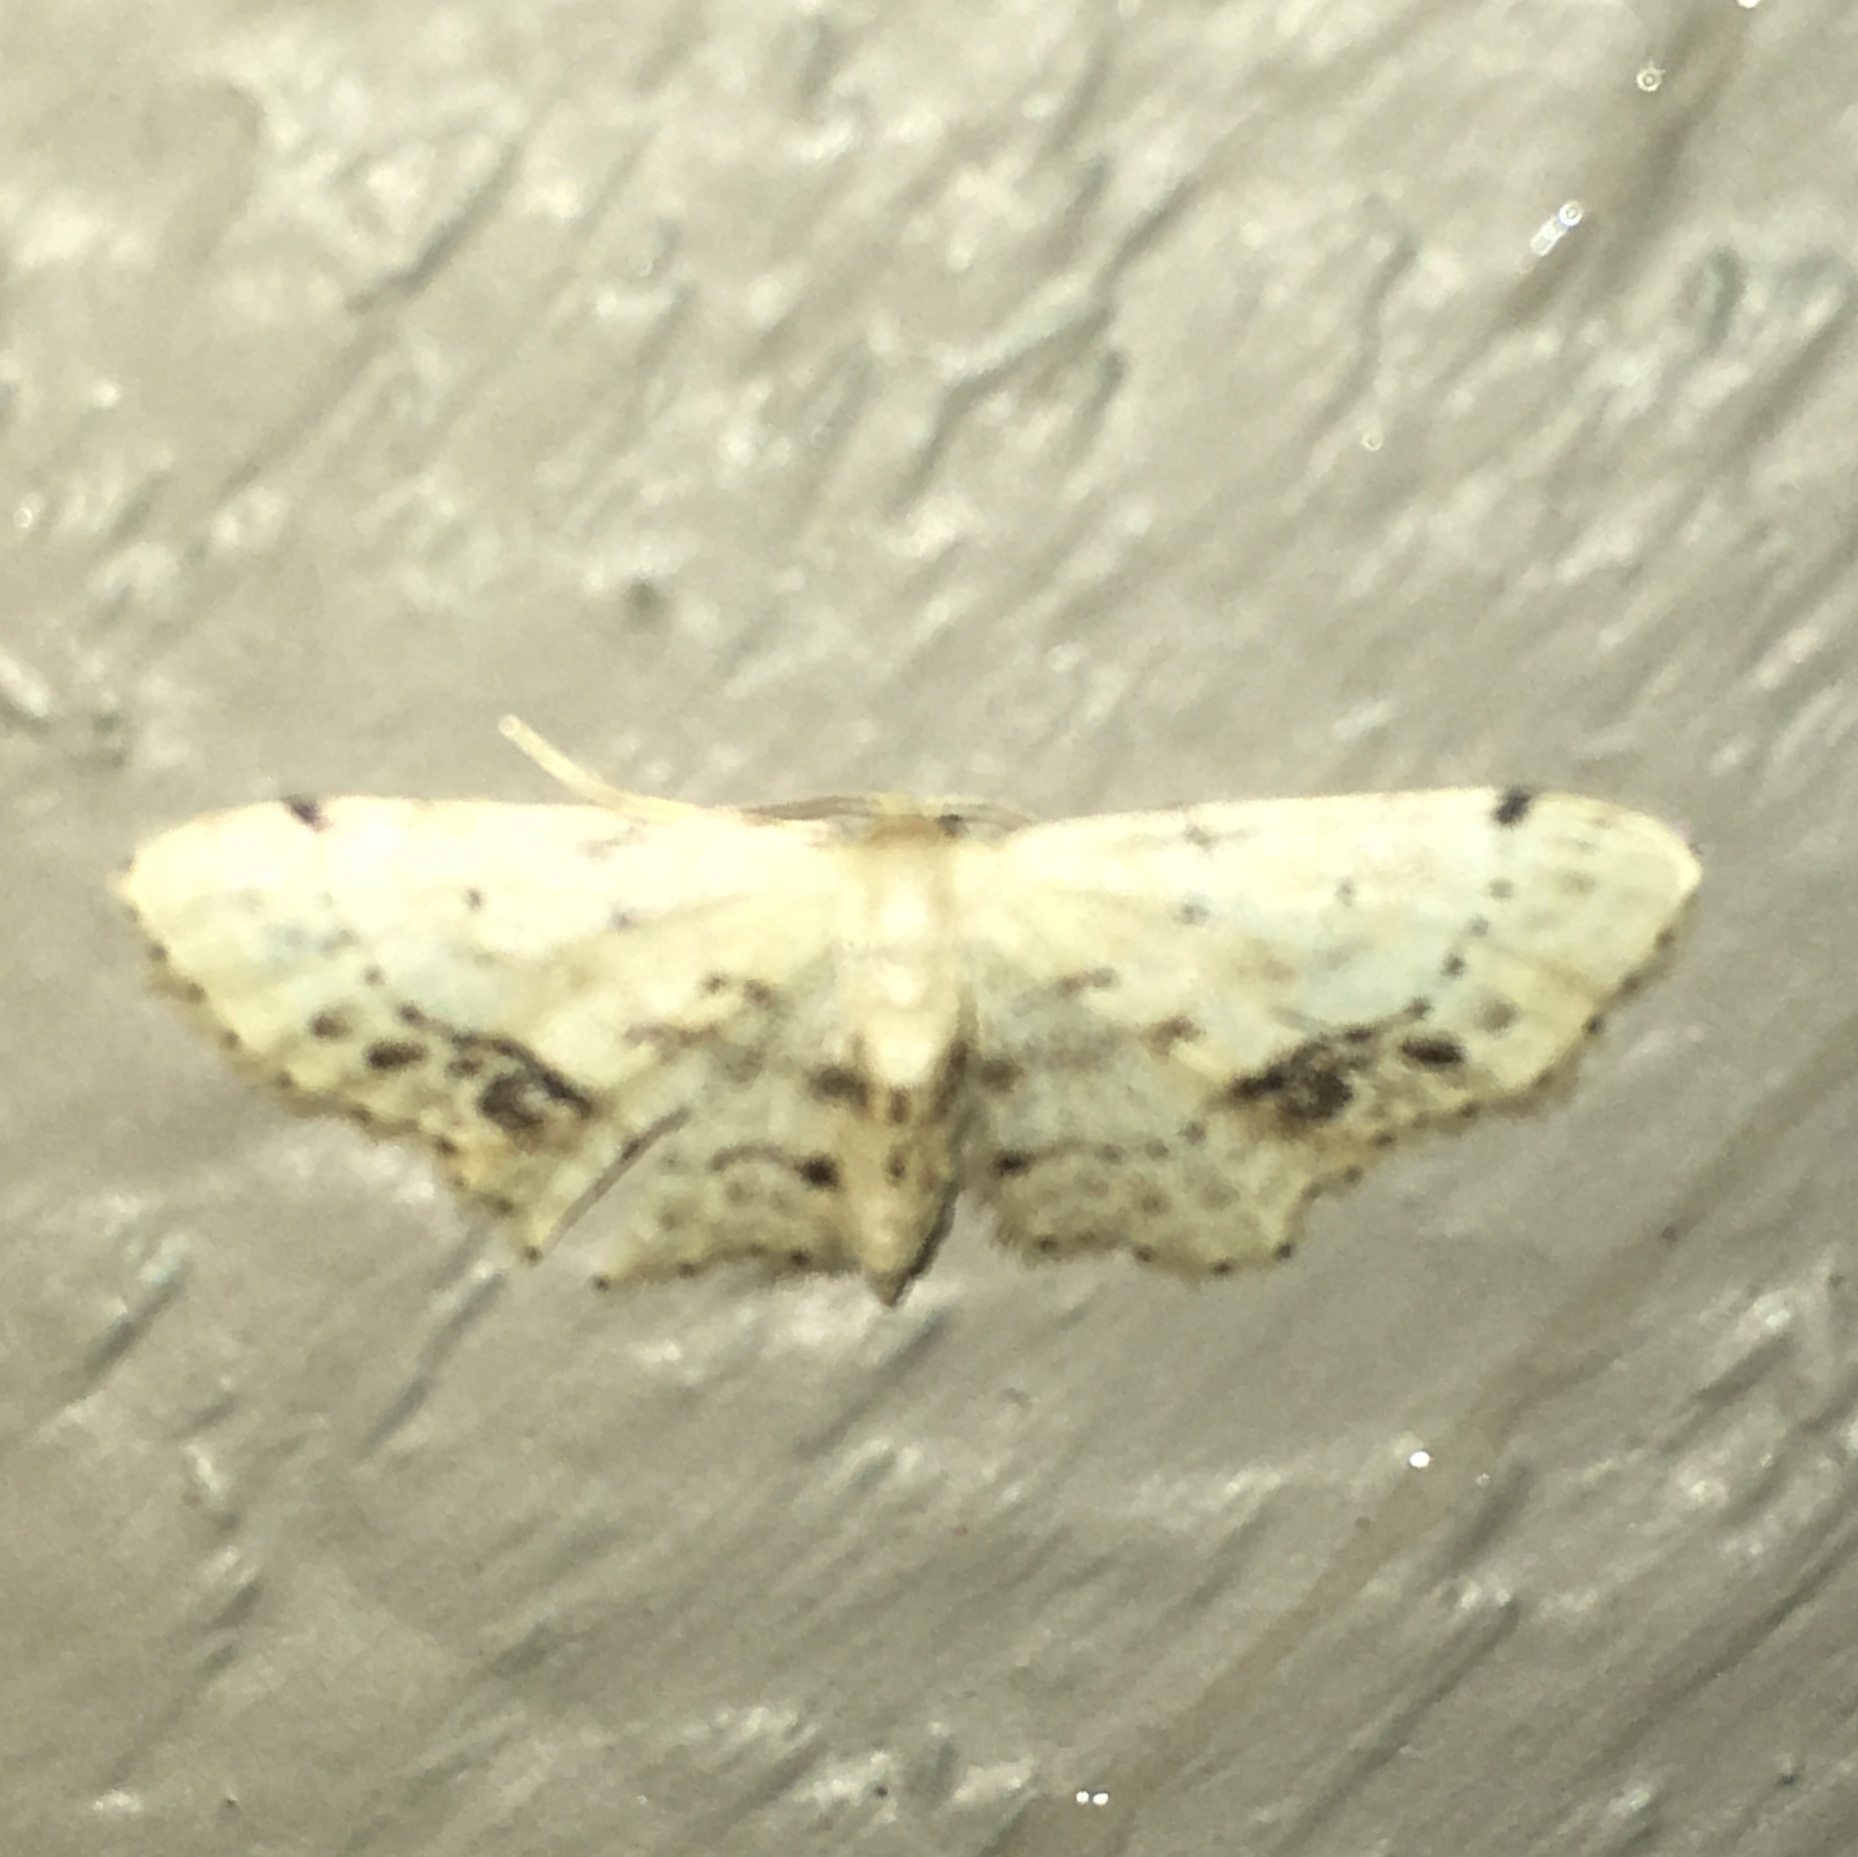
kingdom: Animalia
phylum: Arthropoda
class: Insecta
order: Lepidoptera
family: Geometridae
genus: Idaea
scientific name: Idaea dimidiata
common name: Single-dotted wave
